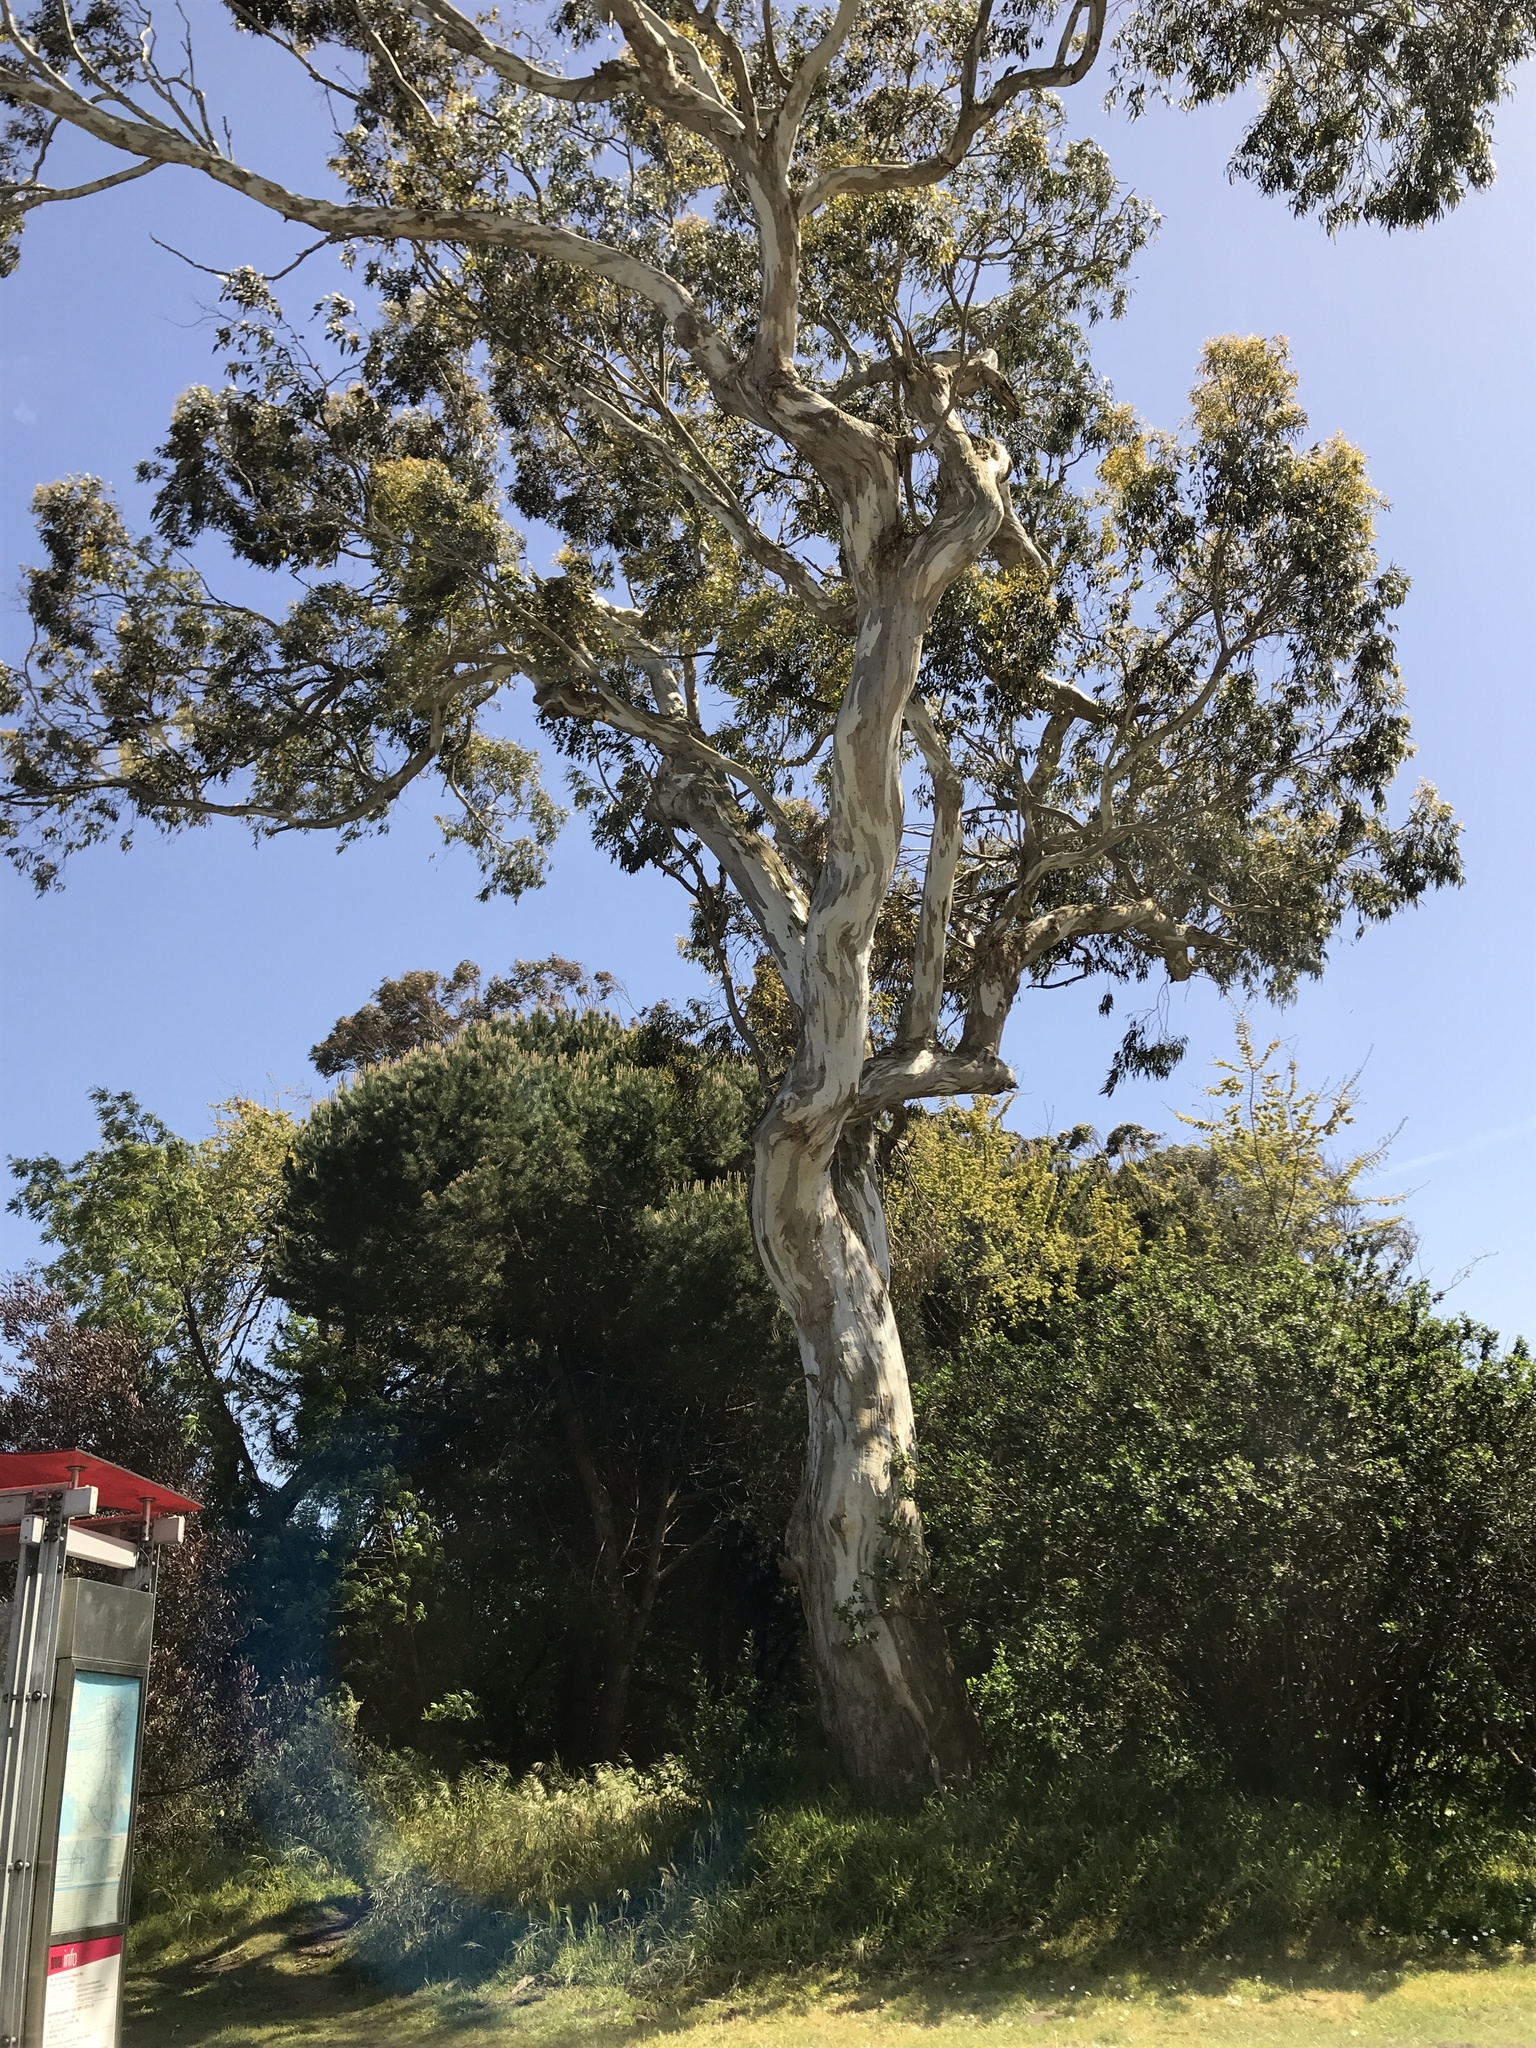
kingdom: Plantae
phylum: Tracheophyta
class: Magnoliopsida
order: Myrtales
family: Myrtaceae
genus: Eucalyptus
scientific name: Eucalyptus camaldulensis
